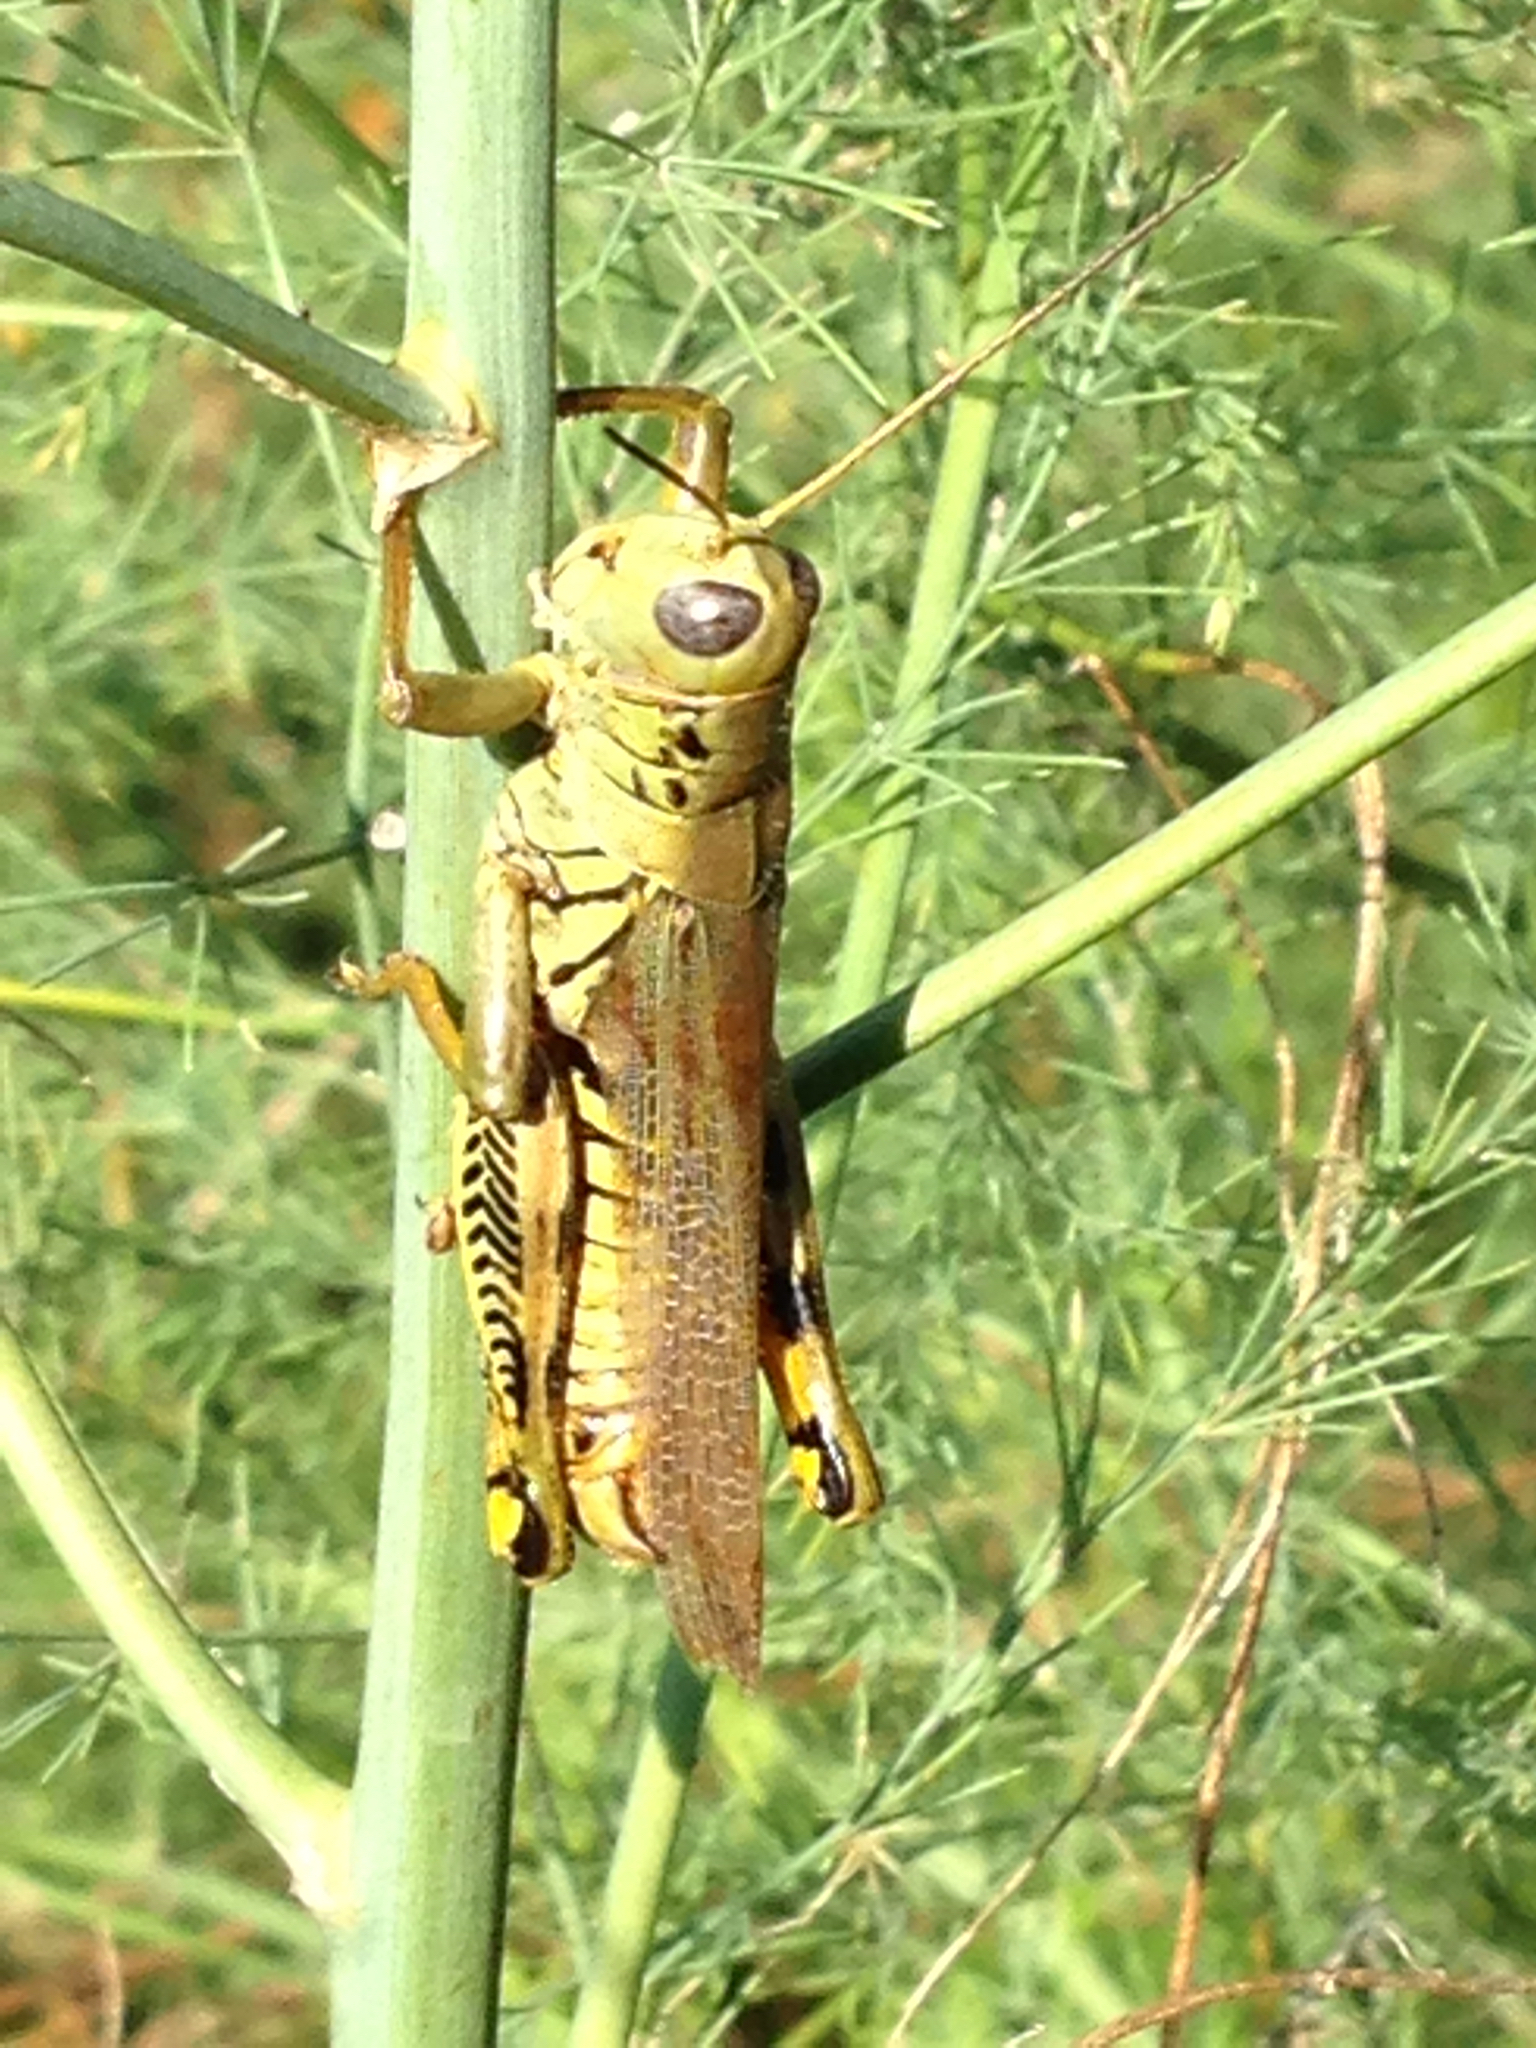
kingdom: Animalia
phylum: Arthropoda
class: Insecta
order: Orthoptera
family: Acrididae
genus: Melanoplus
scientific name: Melanoplus differentialis
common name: Differential grasshopper
